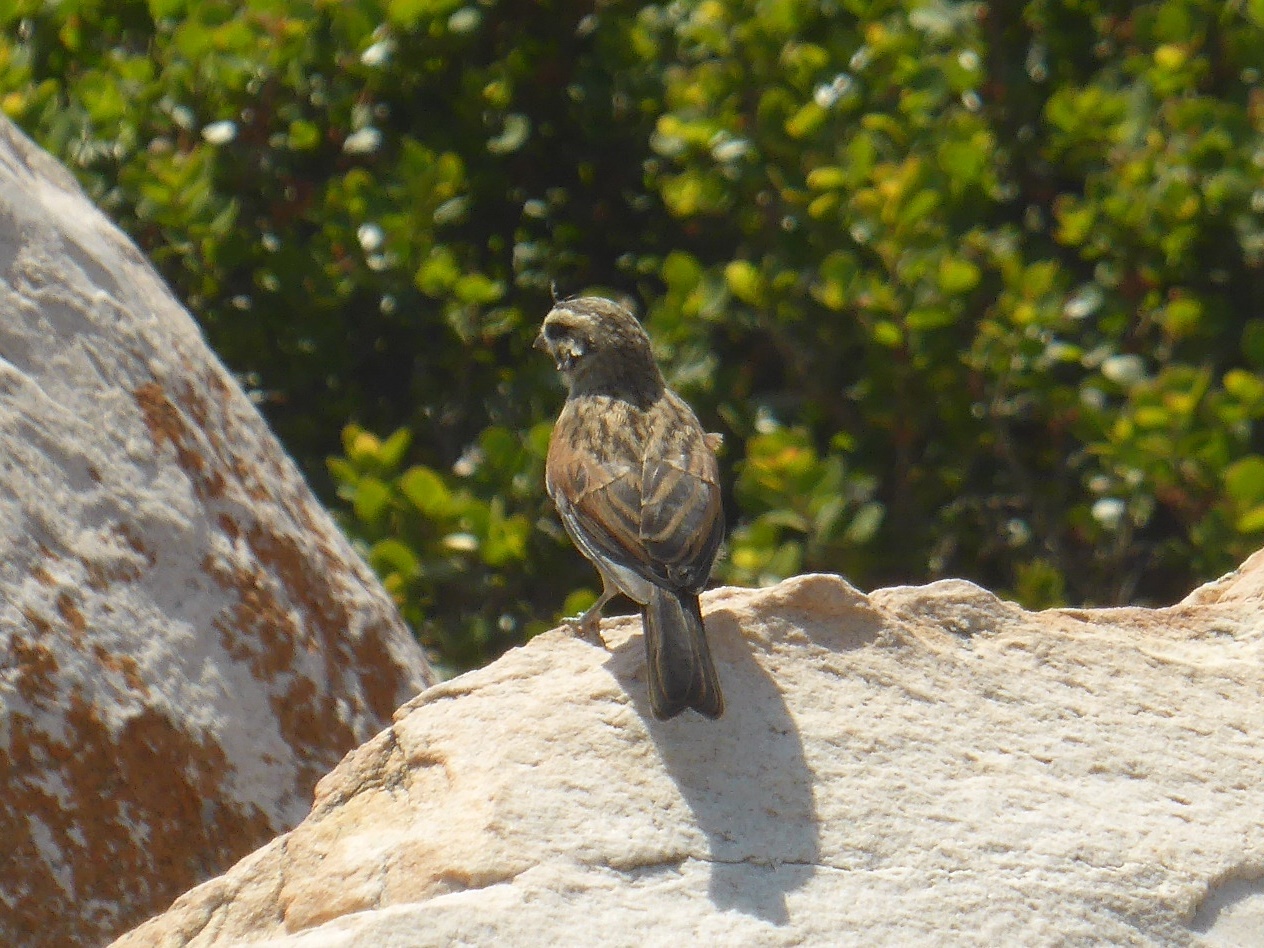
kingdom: Animalia
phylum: Chordata
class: Aves
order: Passeriformes
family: Emberizidae
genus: Emberiza
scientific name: Emberiza capensis
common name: Cape bunting
